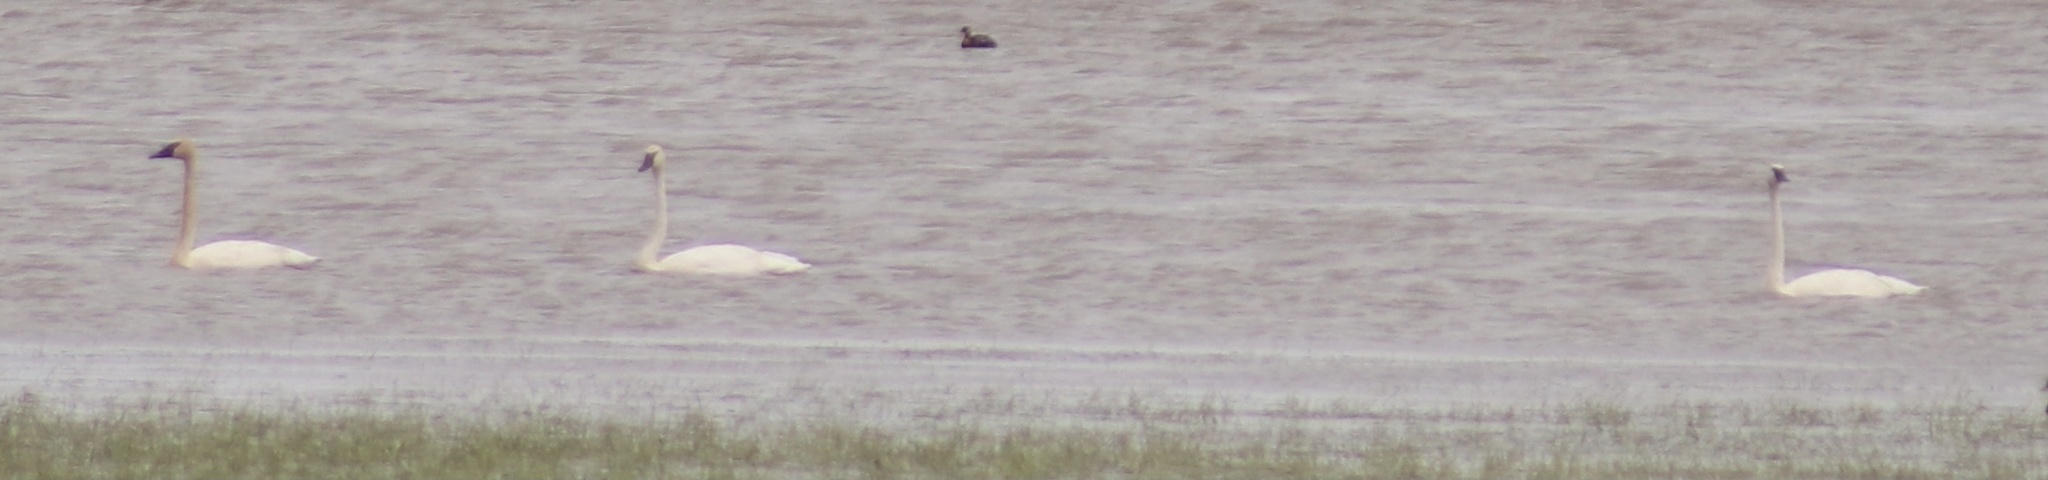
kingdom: Animalia
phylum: Chordata
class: Aves
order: Anseriformes
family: Anatidae
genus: Cygnus
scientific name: Cygnus buccinator
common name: Trumpeter swan
